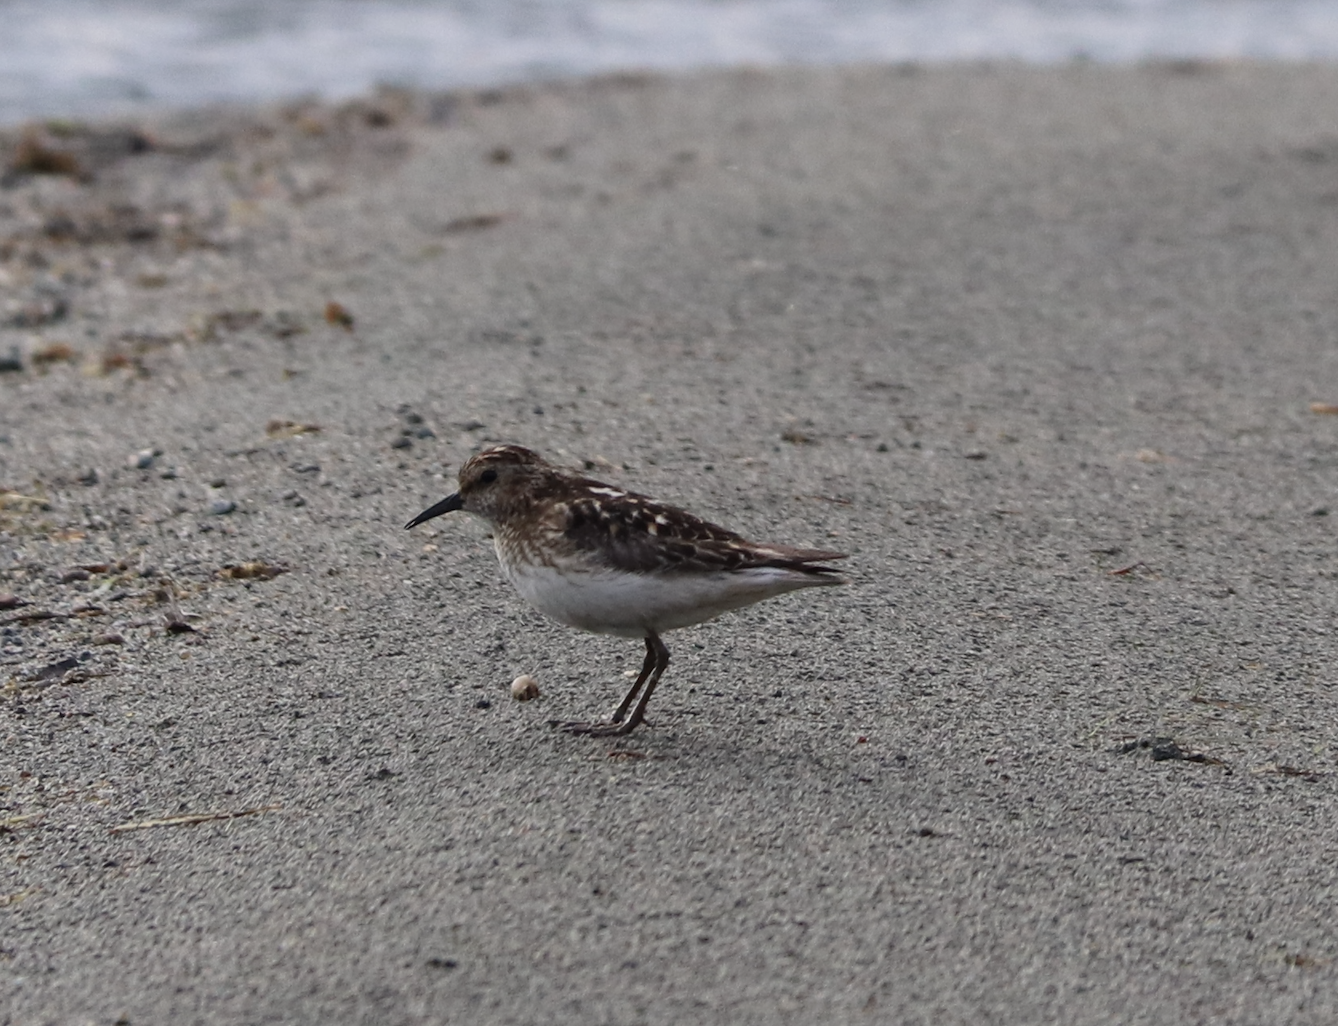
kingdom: Animalia
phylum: Chordata
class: Aves
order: Charadriiformes
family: Scolopacidae
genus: Calidris
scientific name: Calidris minutilla
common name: Least sandpiper
